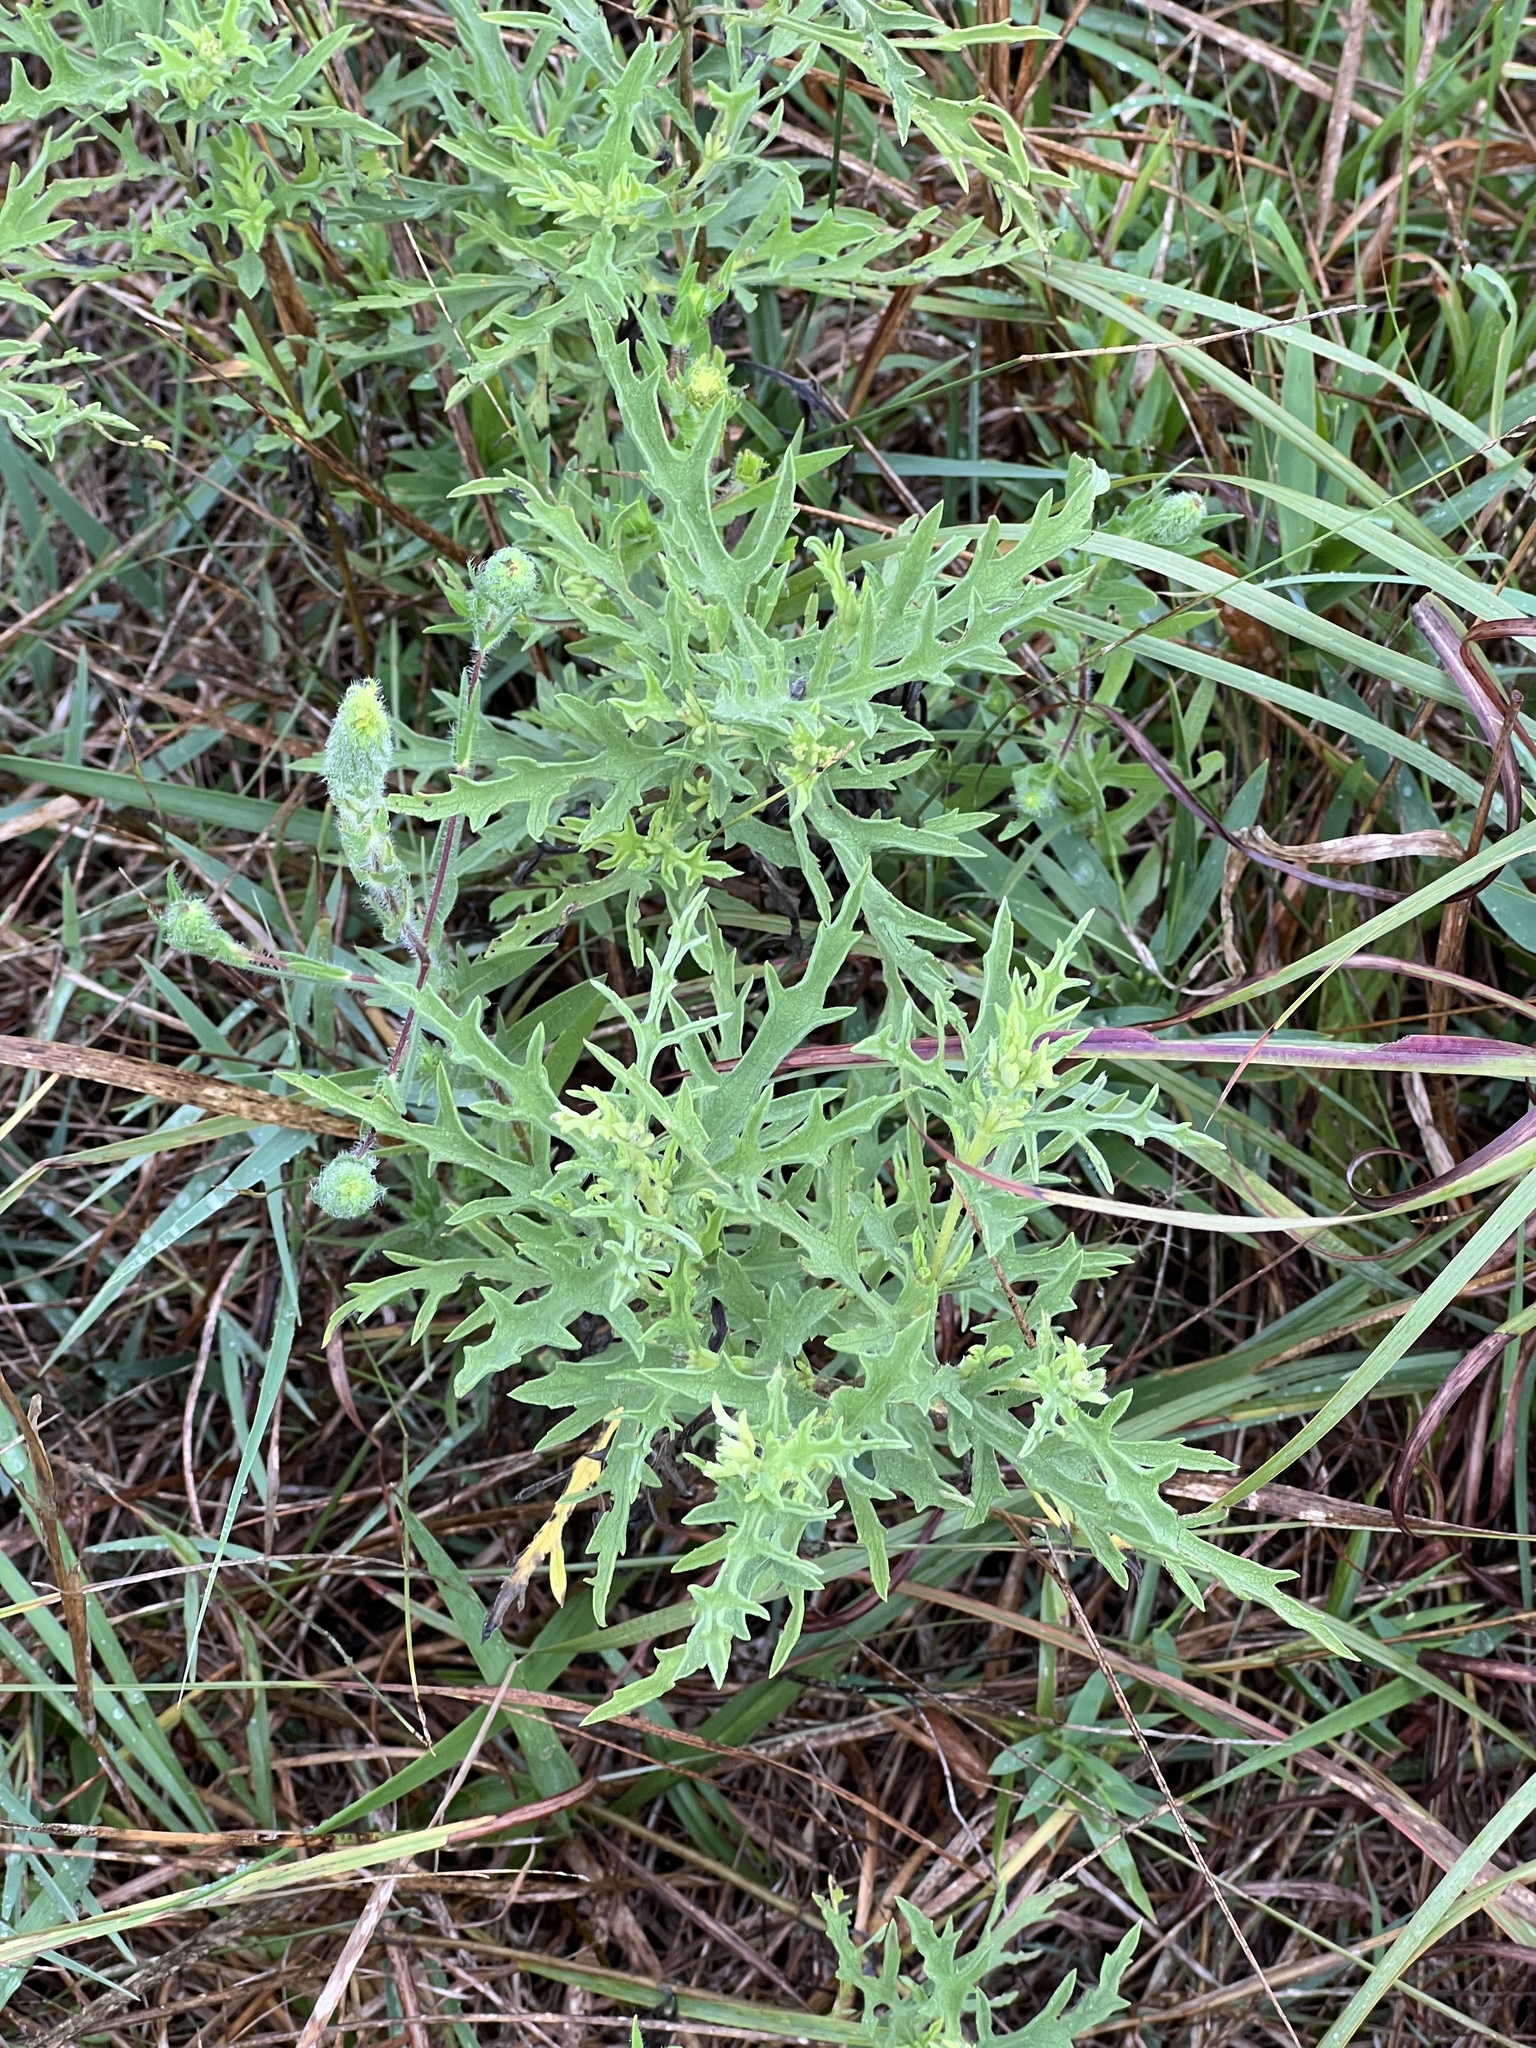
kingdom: Plantae
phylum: Tracheophyta
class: Magnoliopsida
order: Asterales
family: Asteraceae
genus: Ambrosia
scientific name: Ambrosia psilostachya
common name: Perennial ragweed
